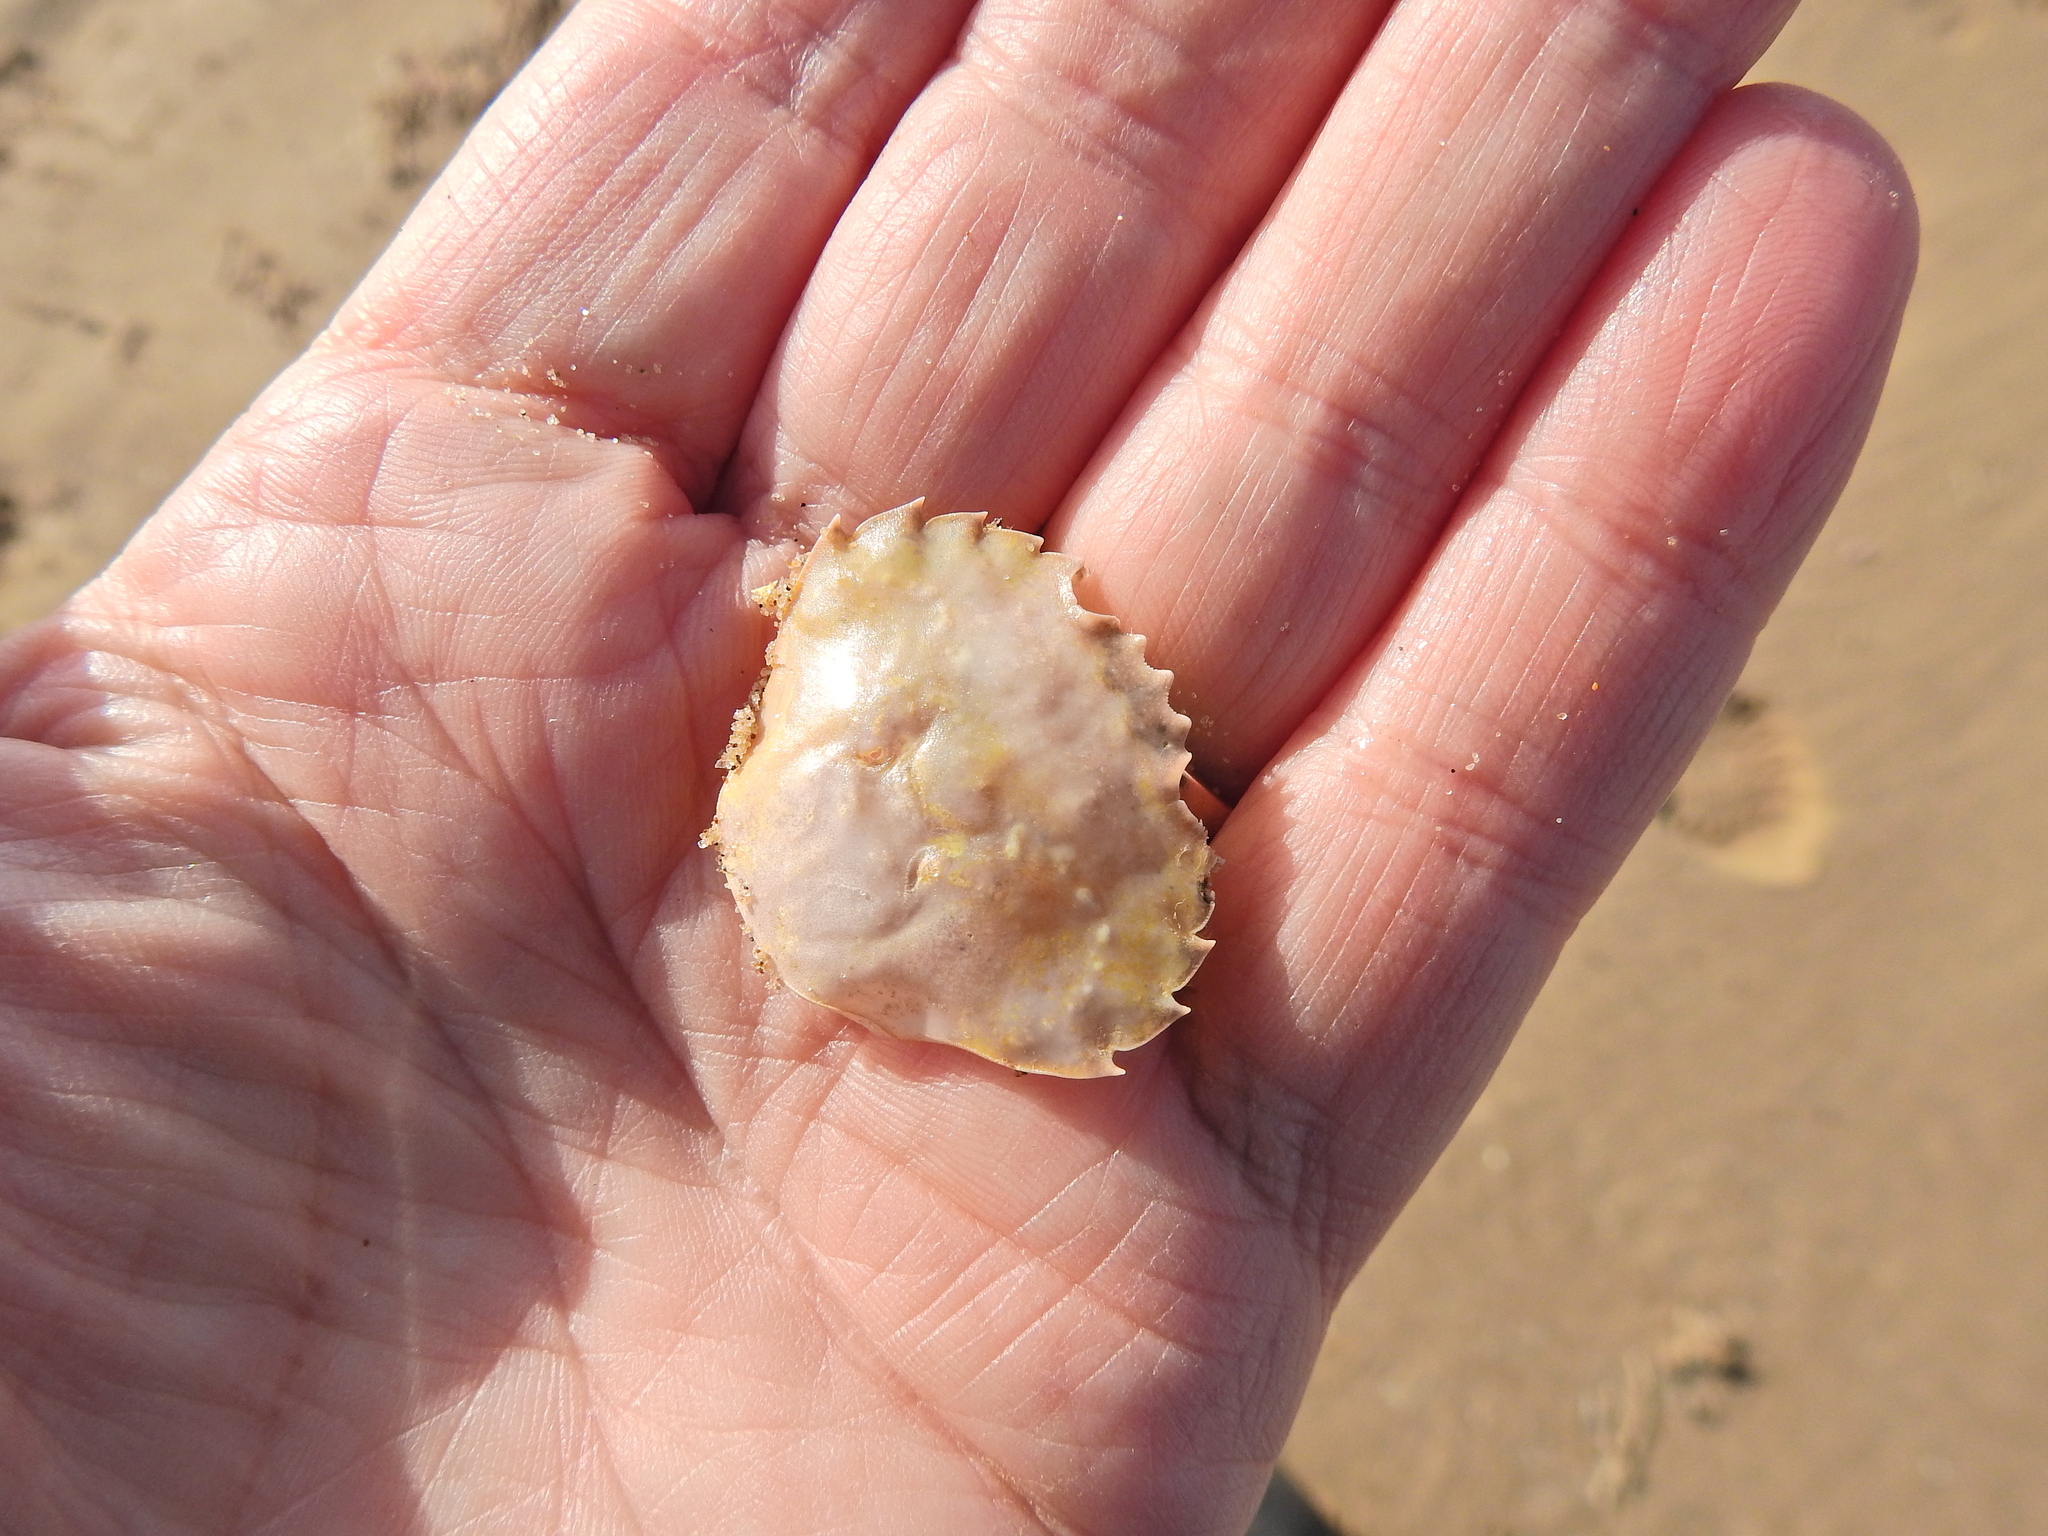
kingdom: Animalia
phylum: Arthropoda
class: Malacostraca
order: Decapoda
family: Polybiidae
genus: Liocarcinus
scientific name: Liocarcinus holsatus
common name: Flying crab
